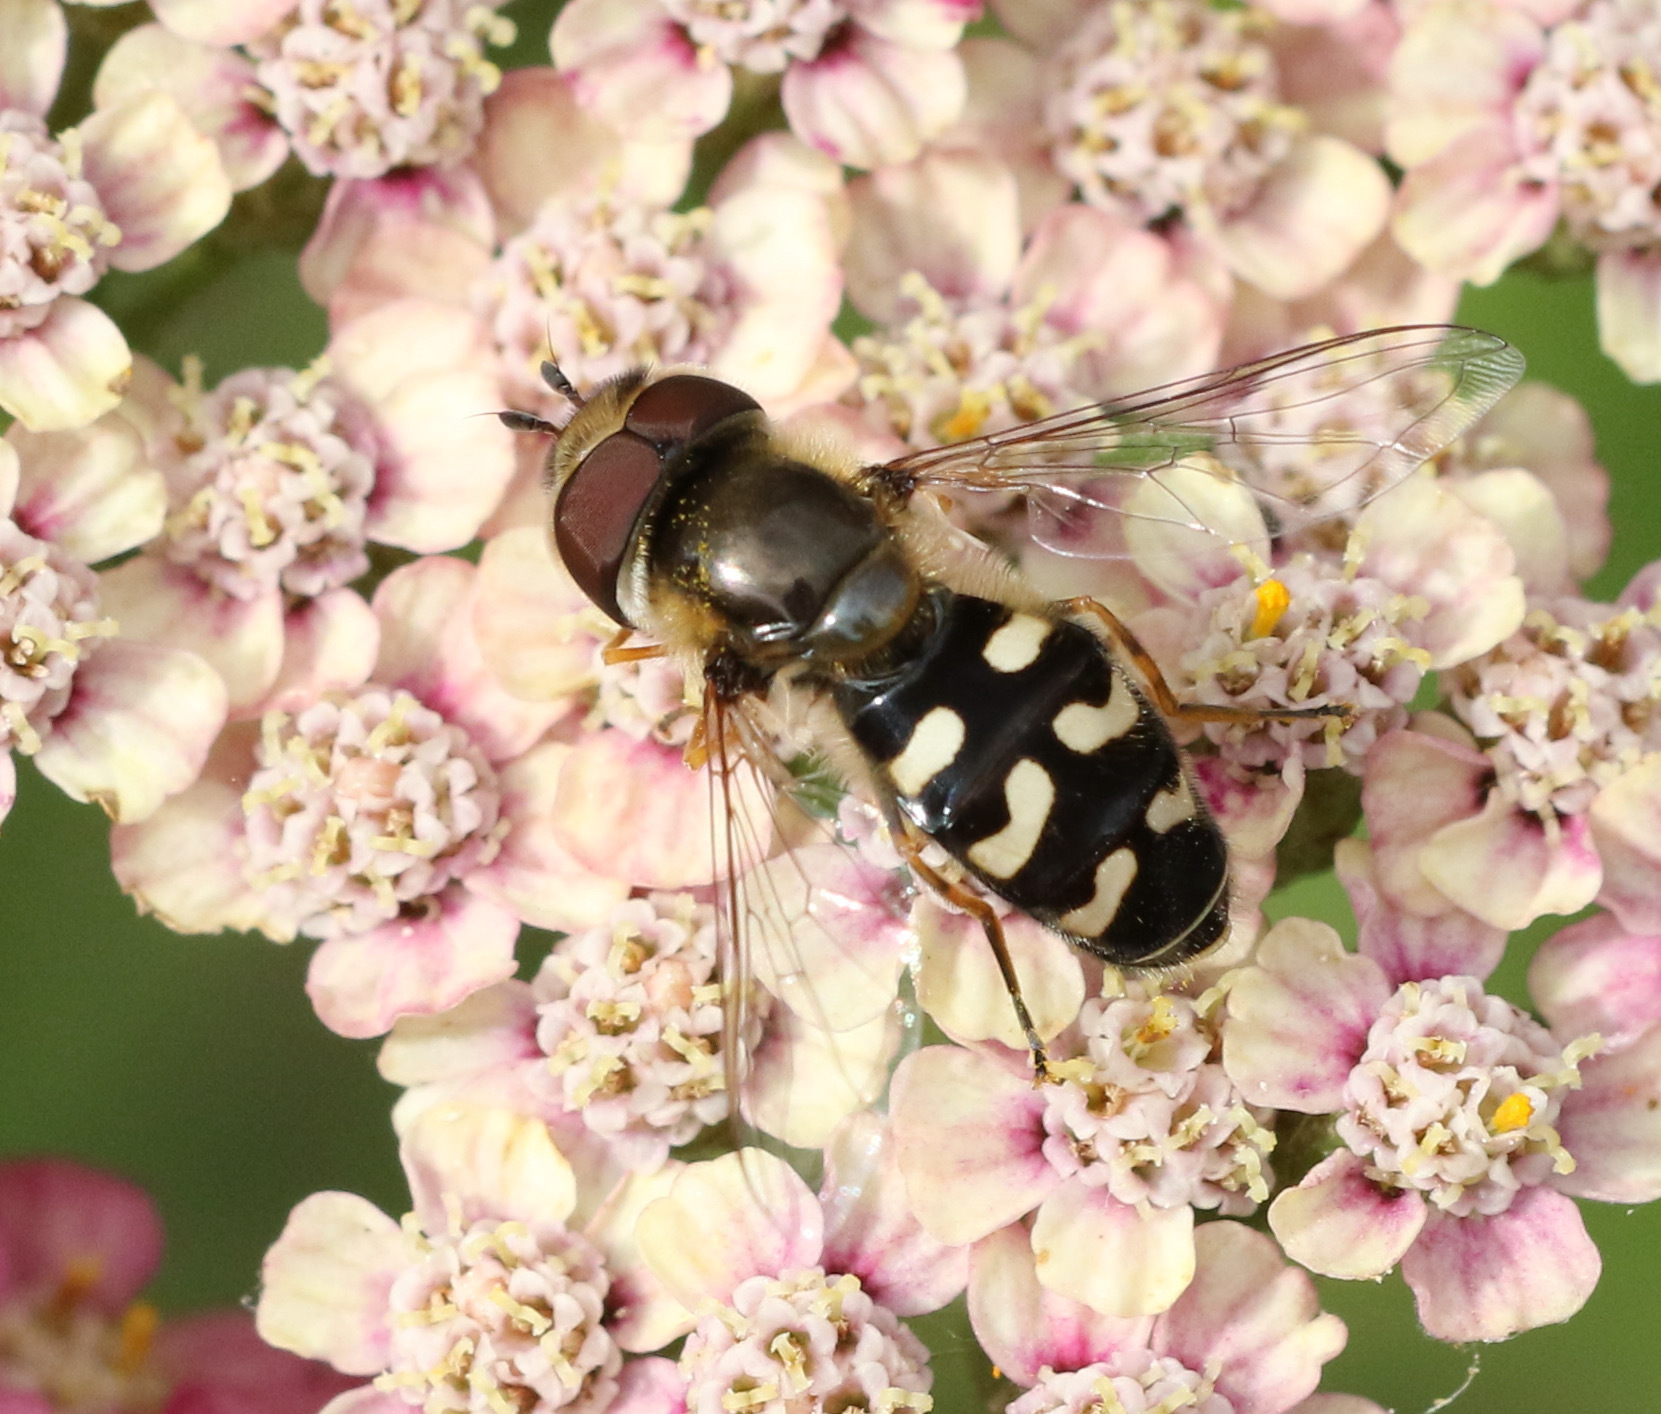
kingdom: Animalia
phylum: Arthropoda
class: Insecta
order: Diptera
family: Syrphidae
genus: Scaeva
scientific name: Scaeva pyrastri
